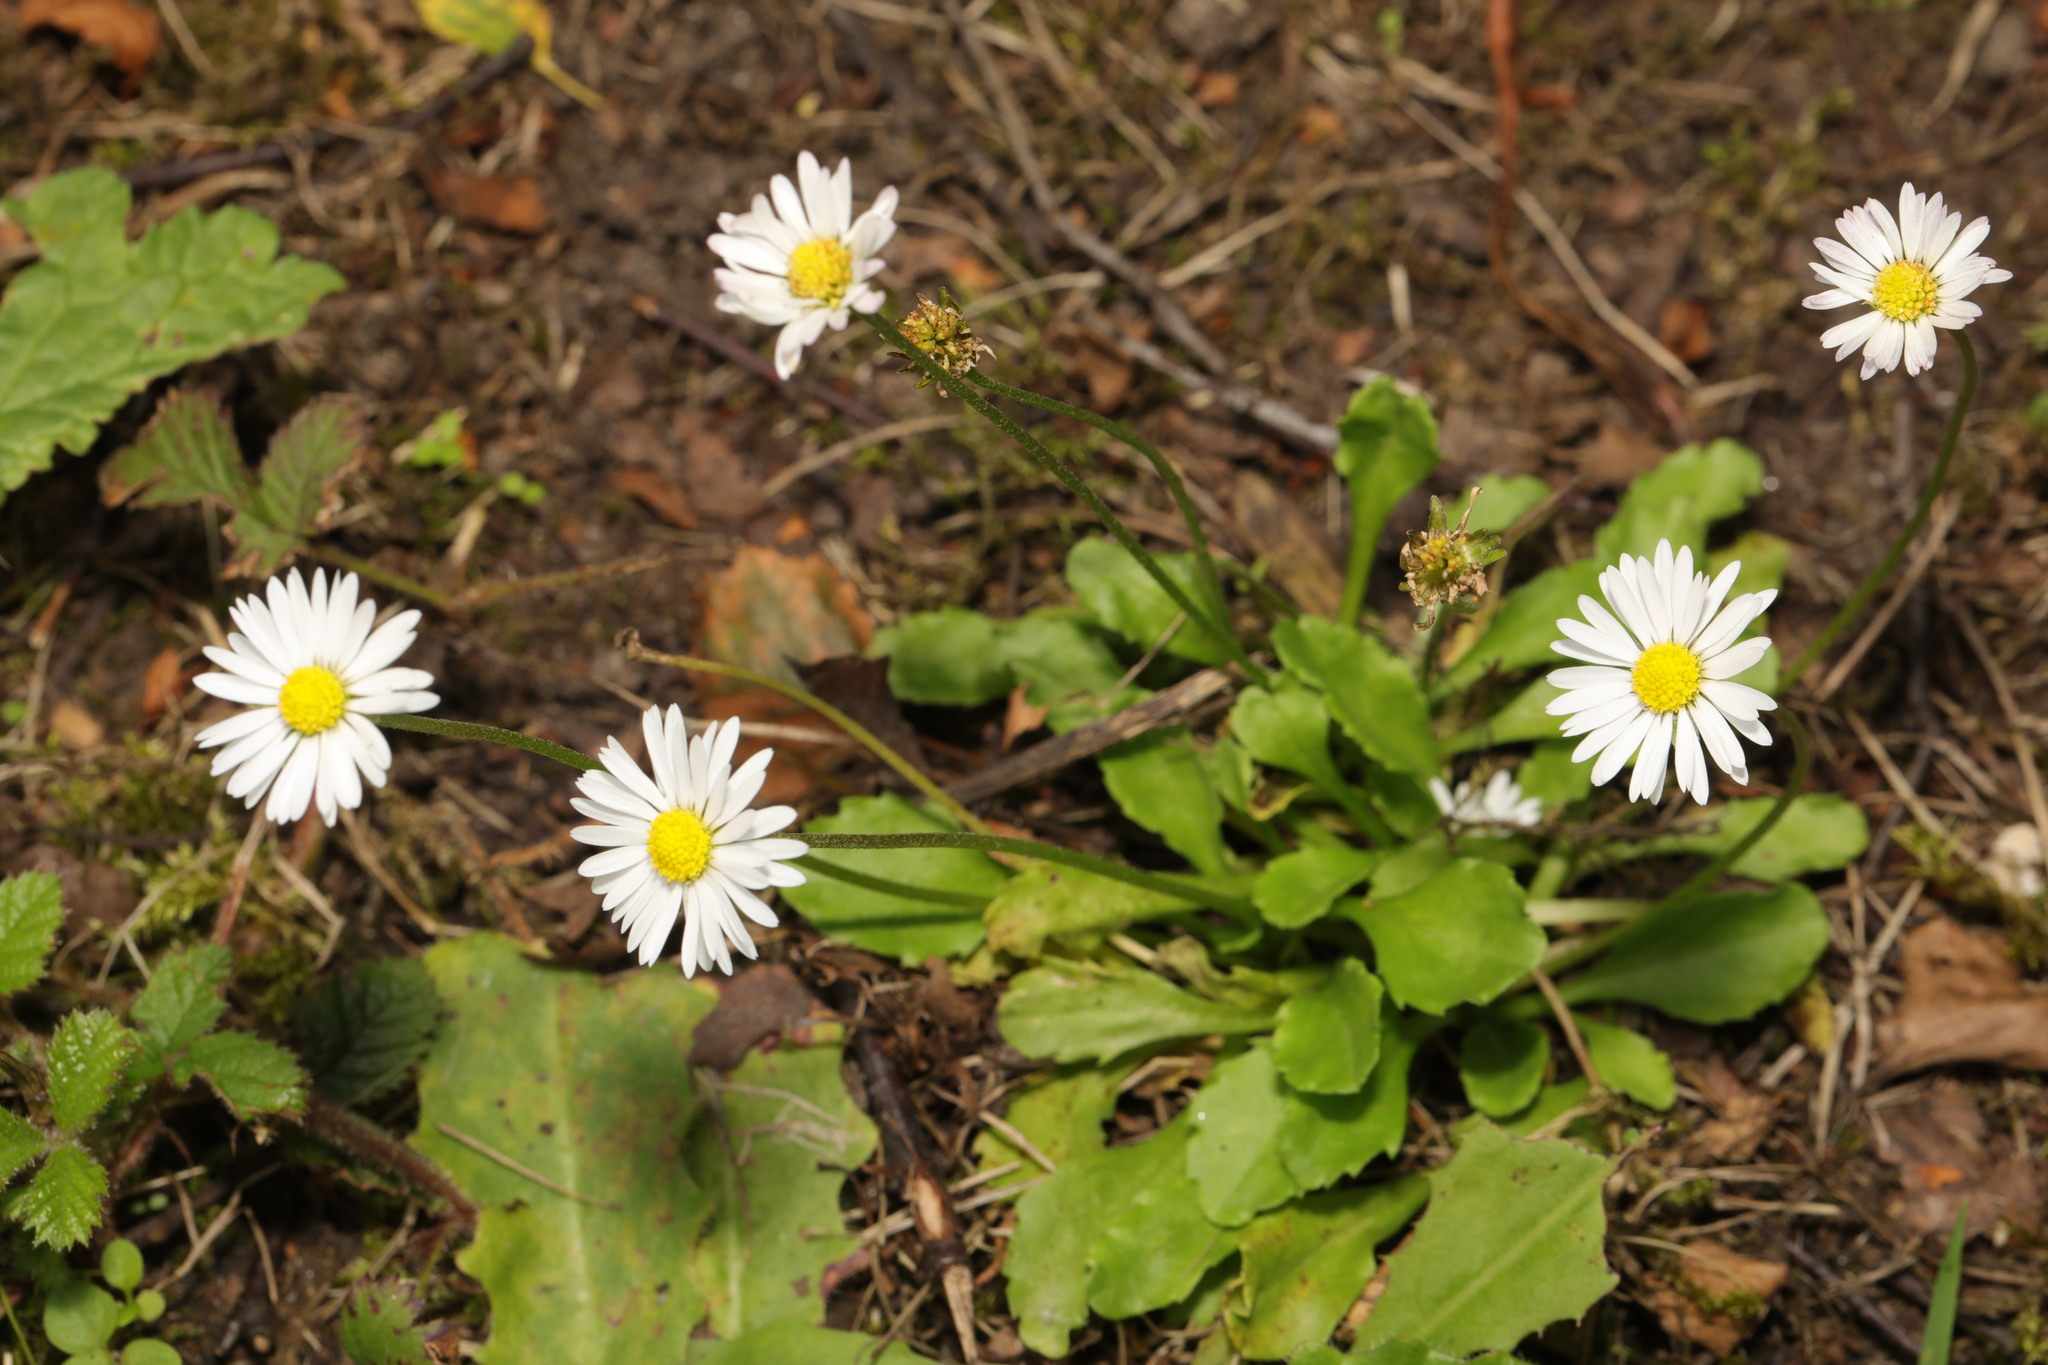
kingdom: Plantae
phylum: Tracheophyta
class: Magnoliopsida
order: Asterales
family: Asteraceae
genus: Bellis
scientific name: Bellis perennis
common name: Lawndaisy
